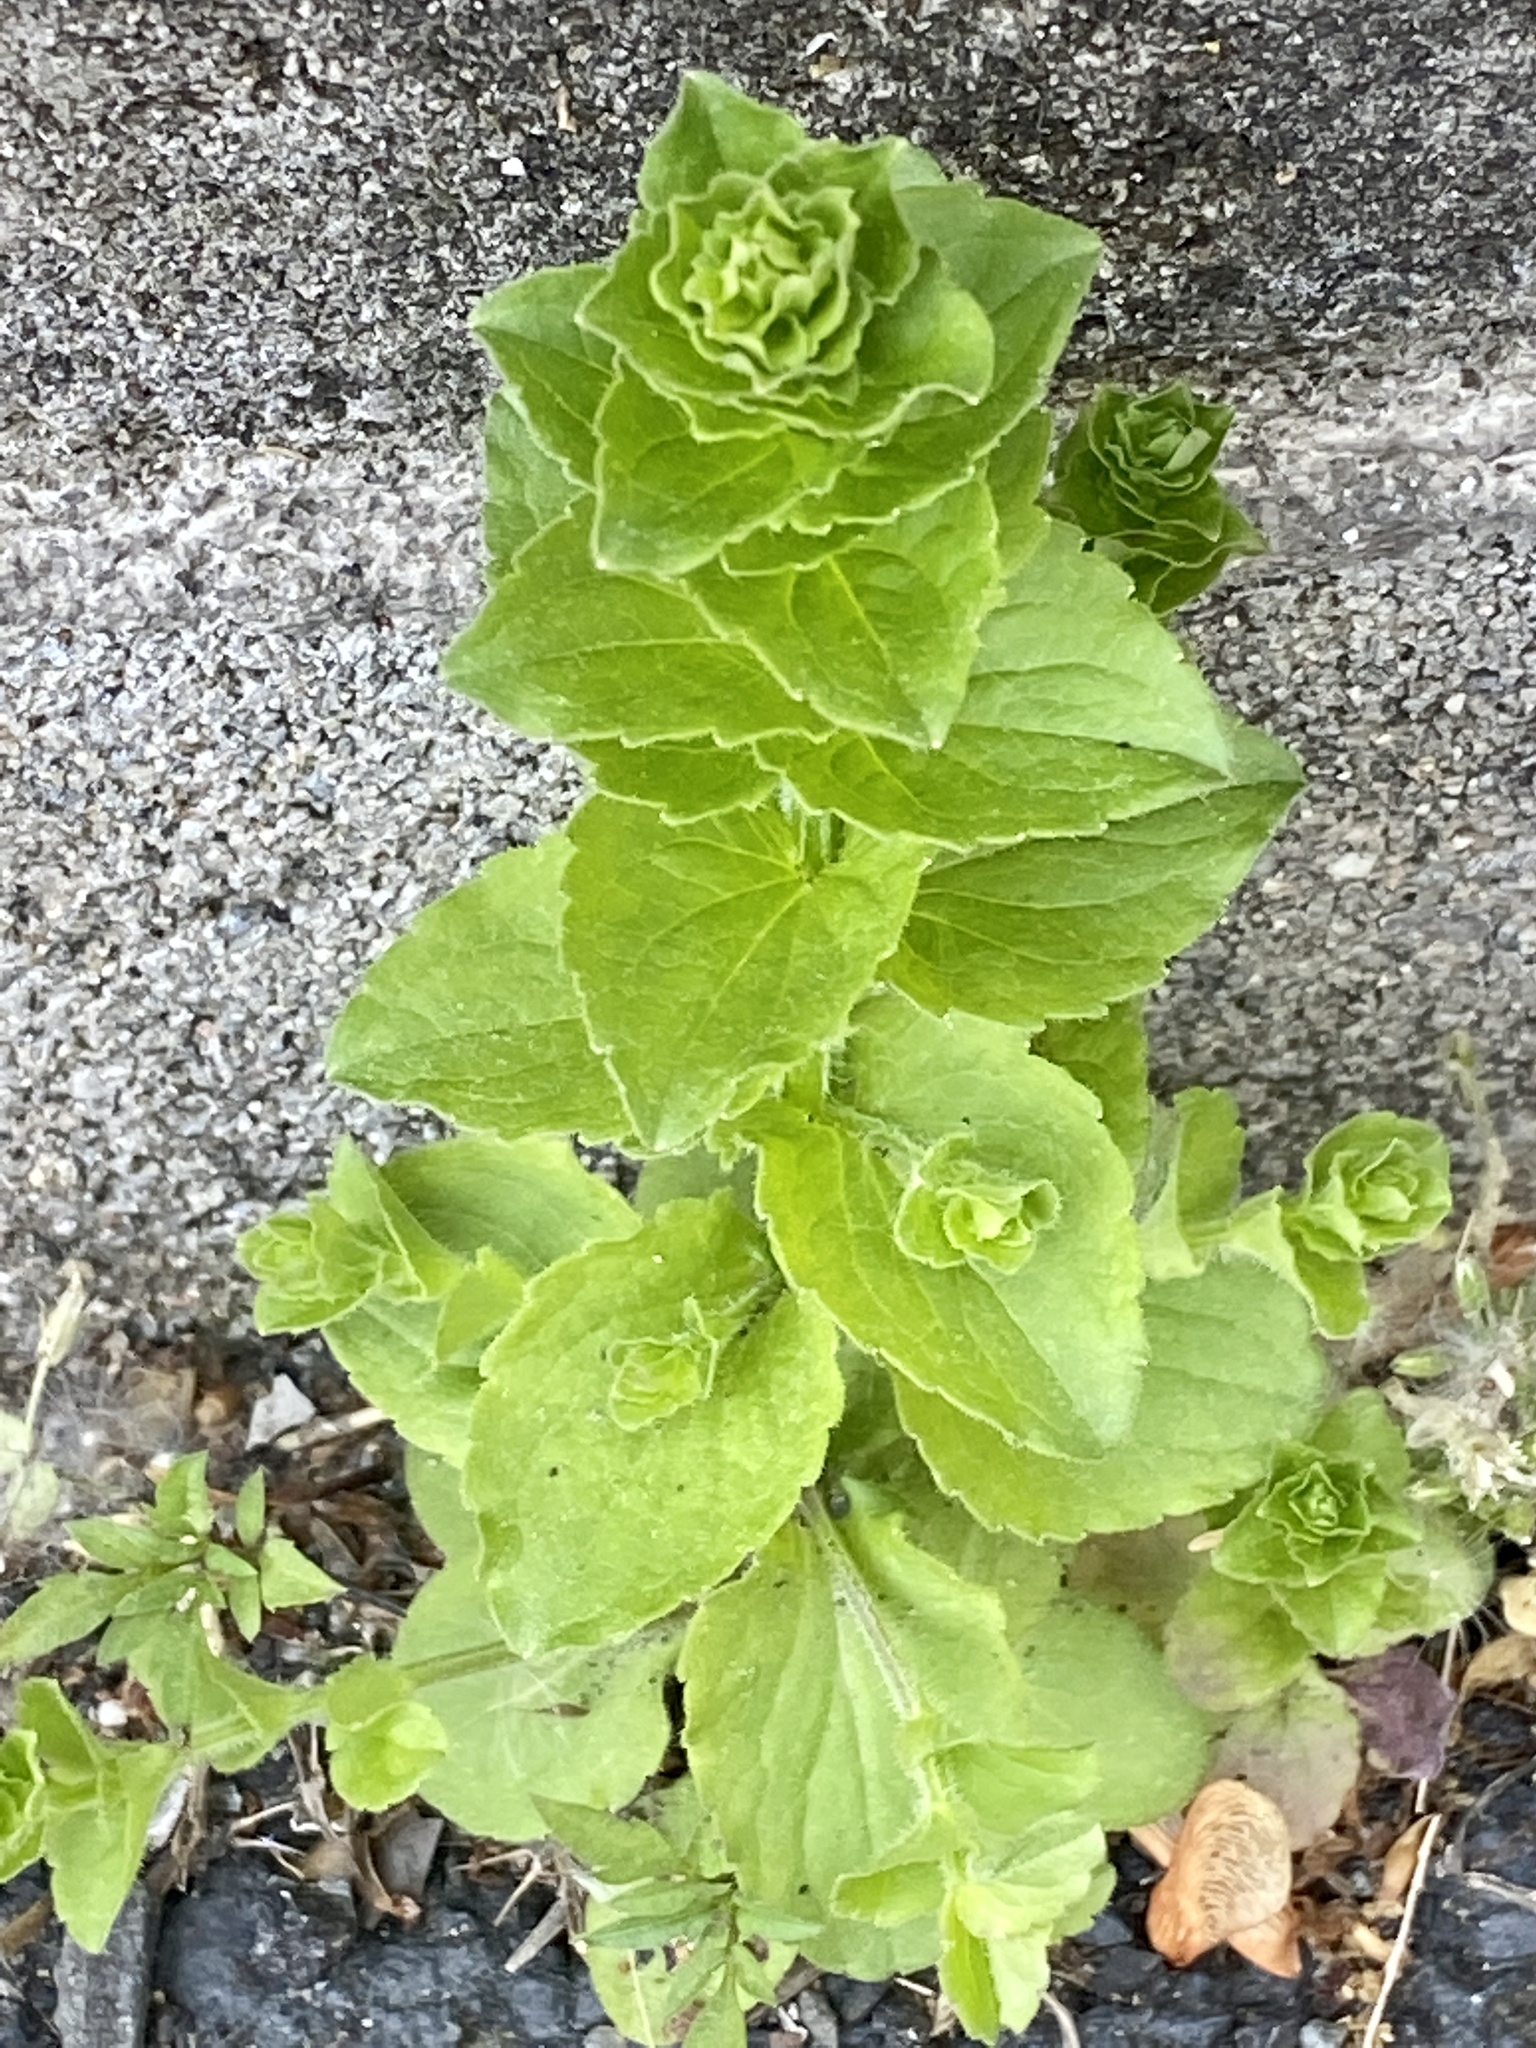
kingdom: Plantae
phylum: Tracheophyta
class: Magnoliopsida
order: Asterales
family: Campanulaceae
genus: Triodanis
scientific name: Triodanis perfoliata
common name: Clasping venus' looking-glass
